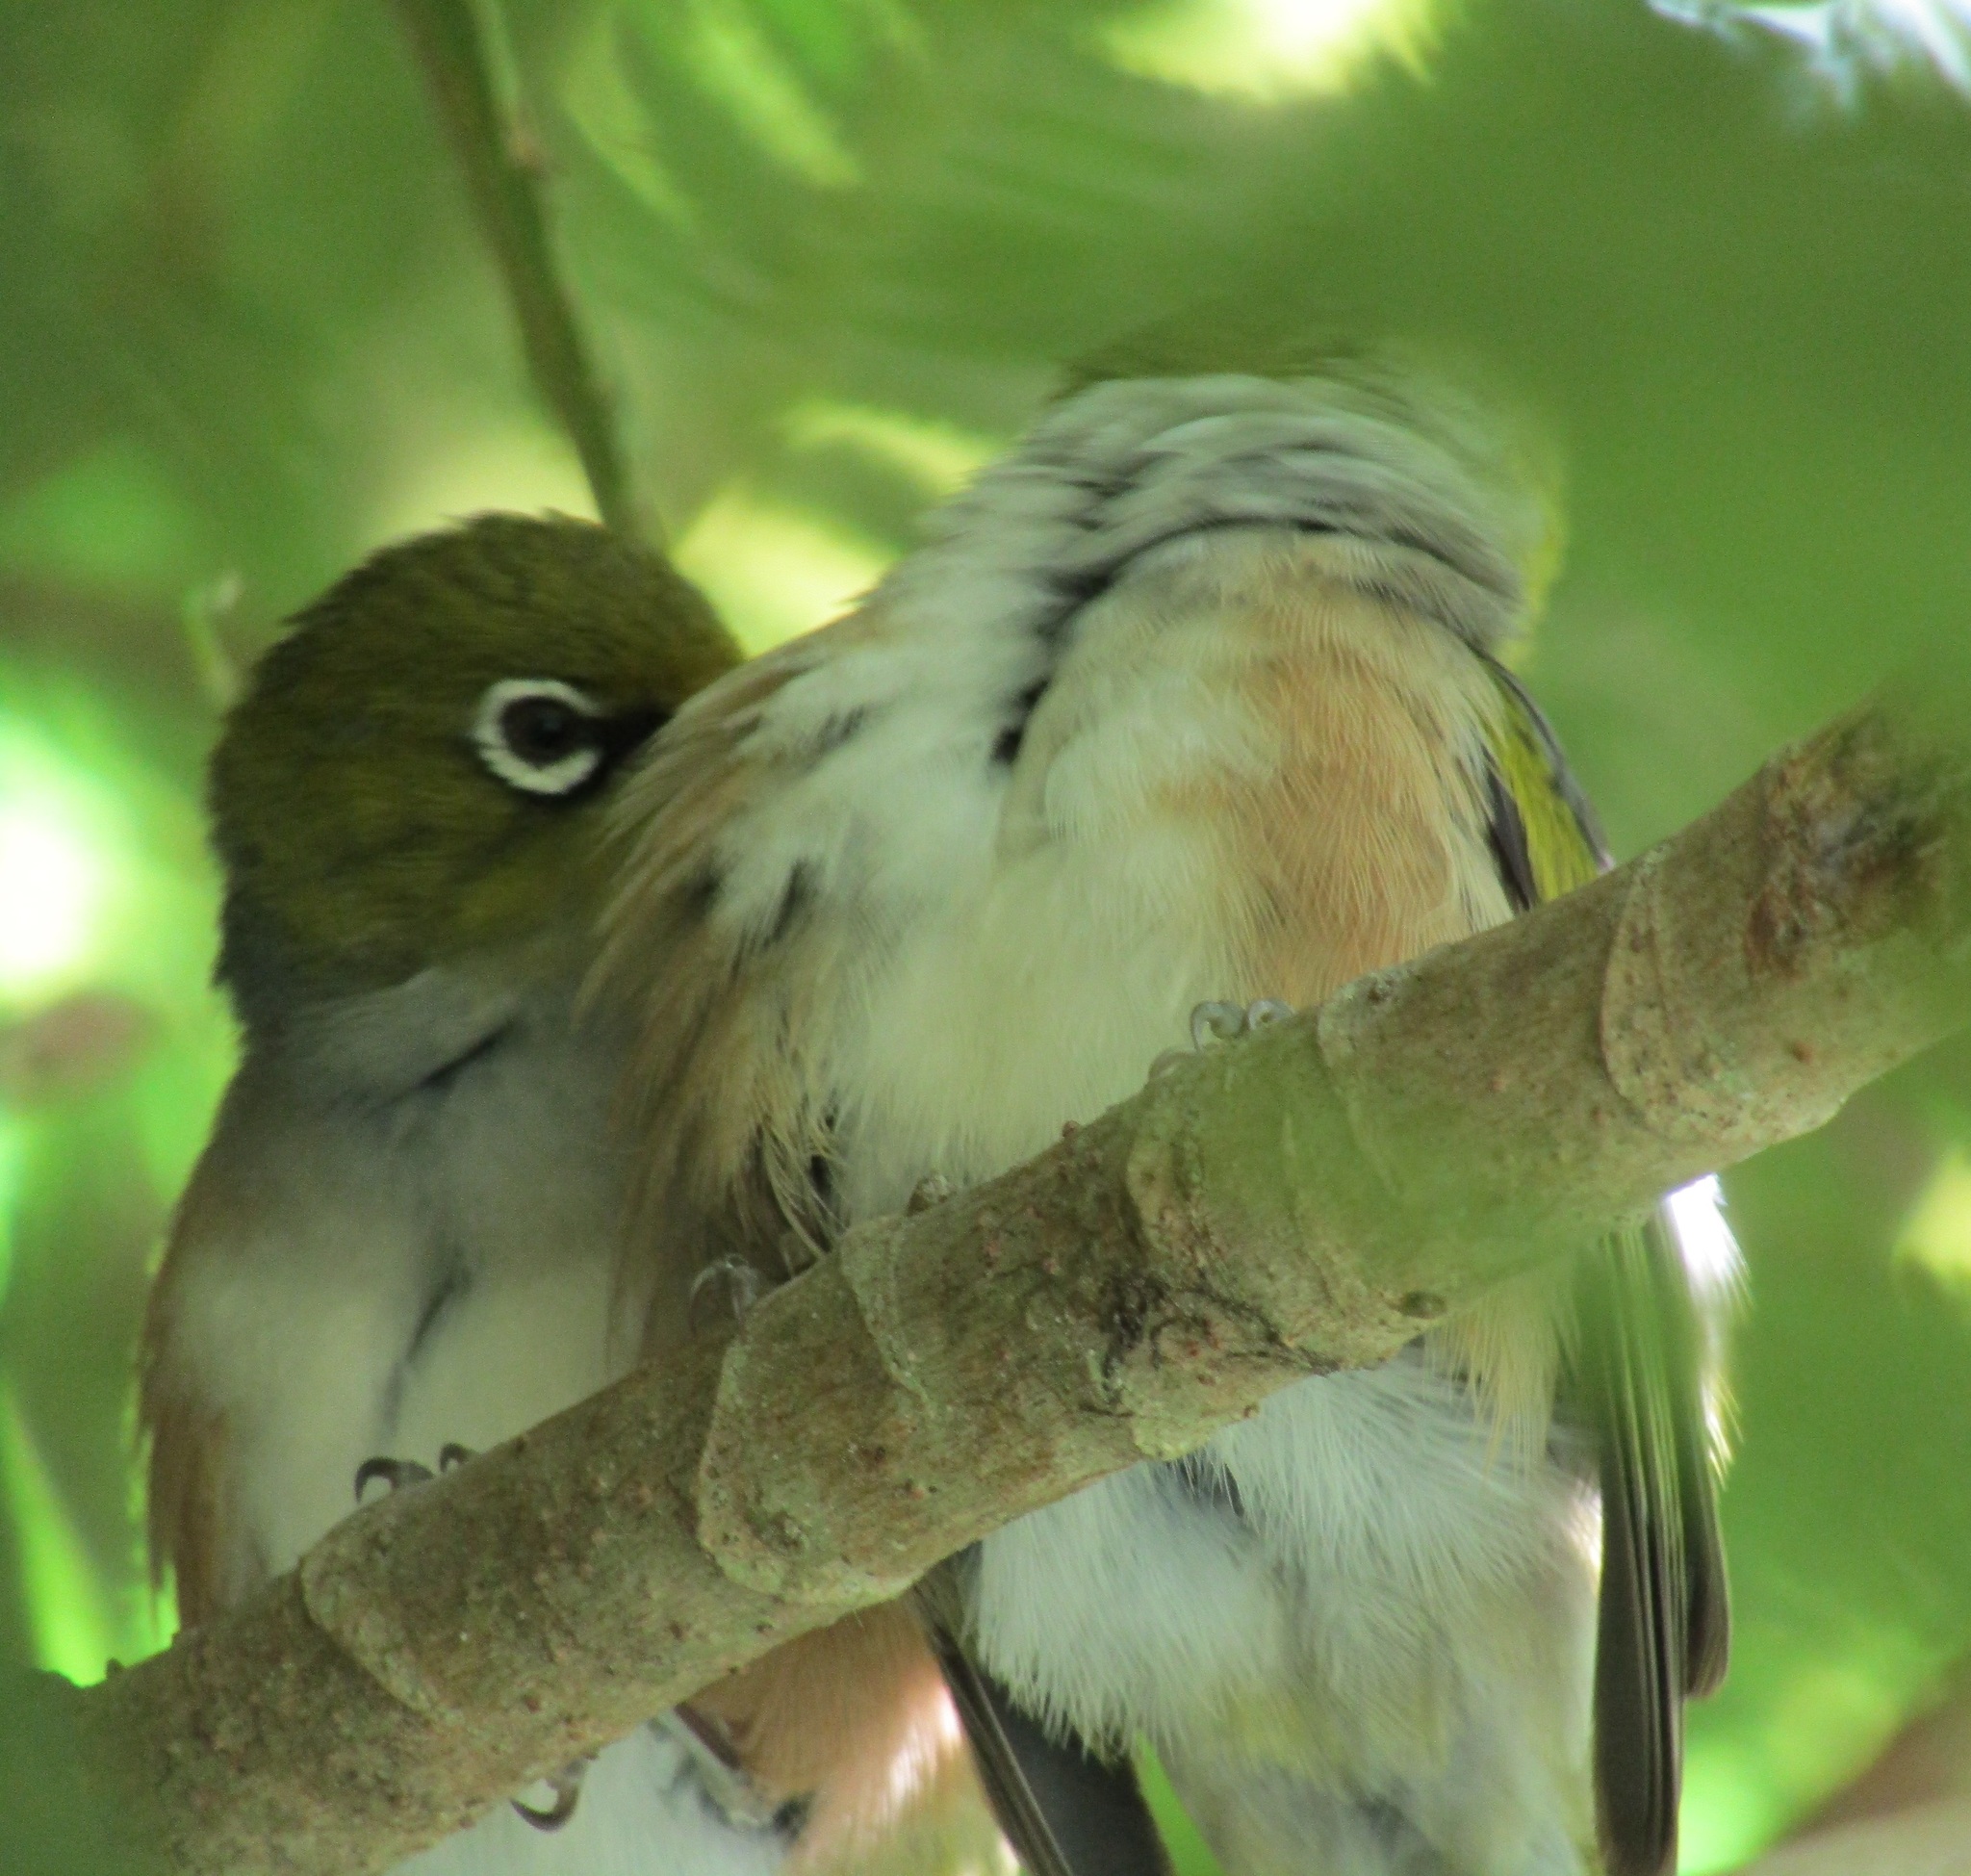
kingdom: Animalia
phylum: Chordata
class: Aves
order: Passeriformes
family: Zosteropidae
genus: Zosterops
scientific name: Zosterops lateralis
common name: Silvereye
